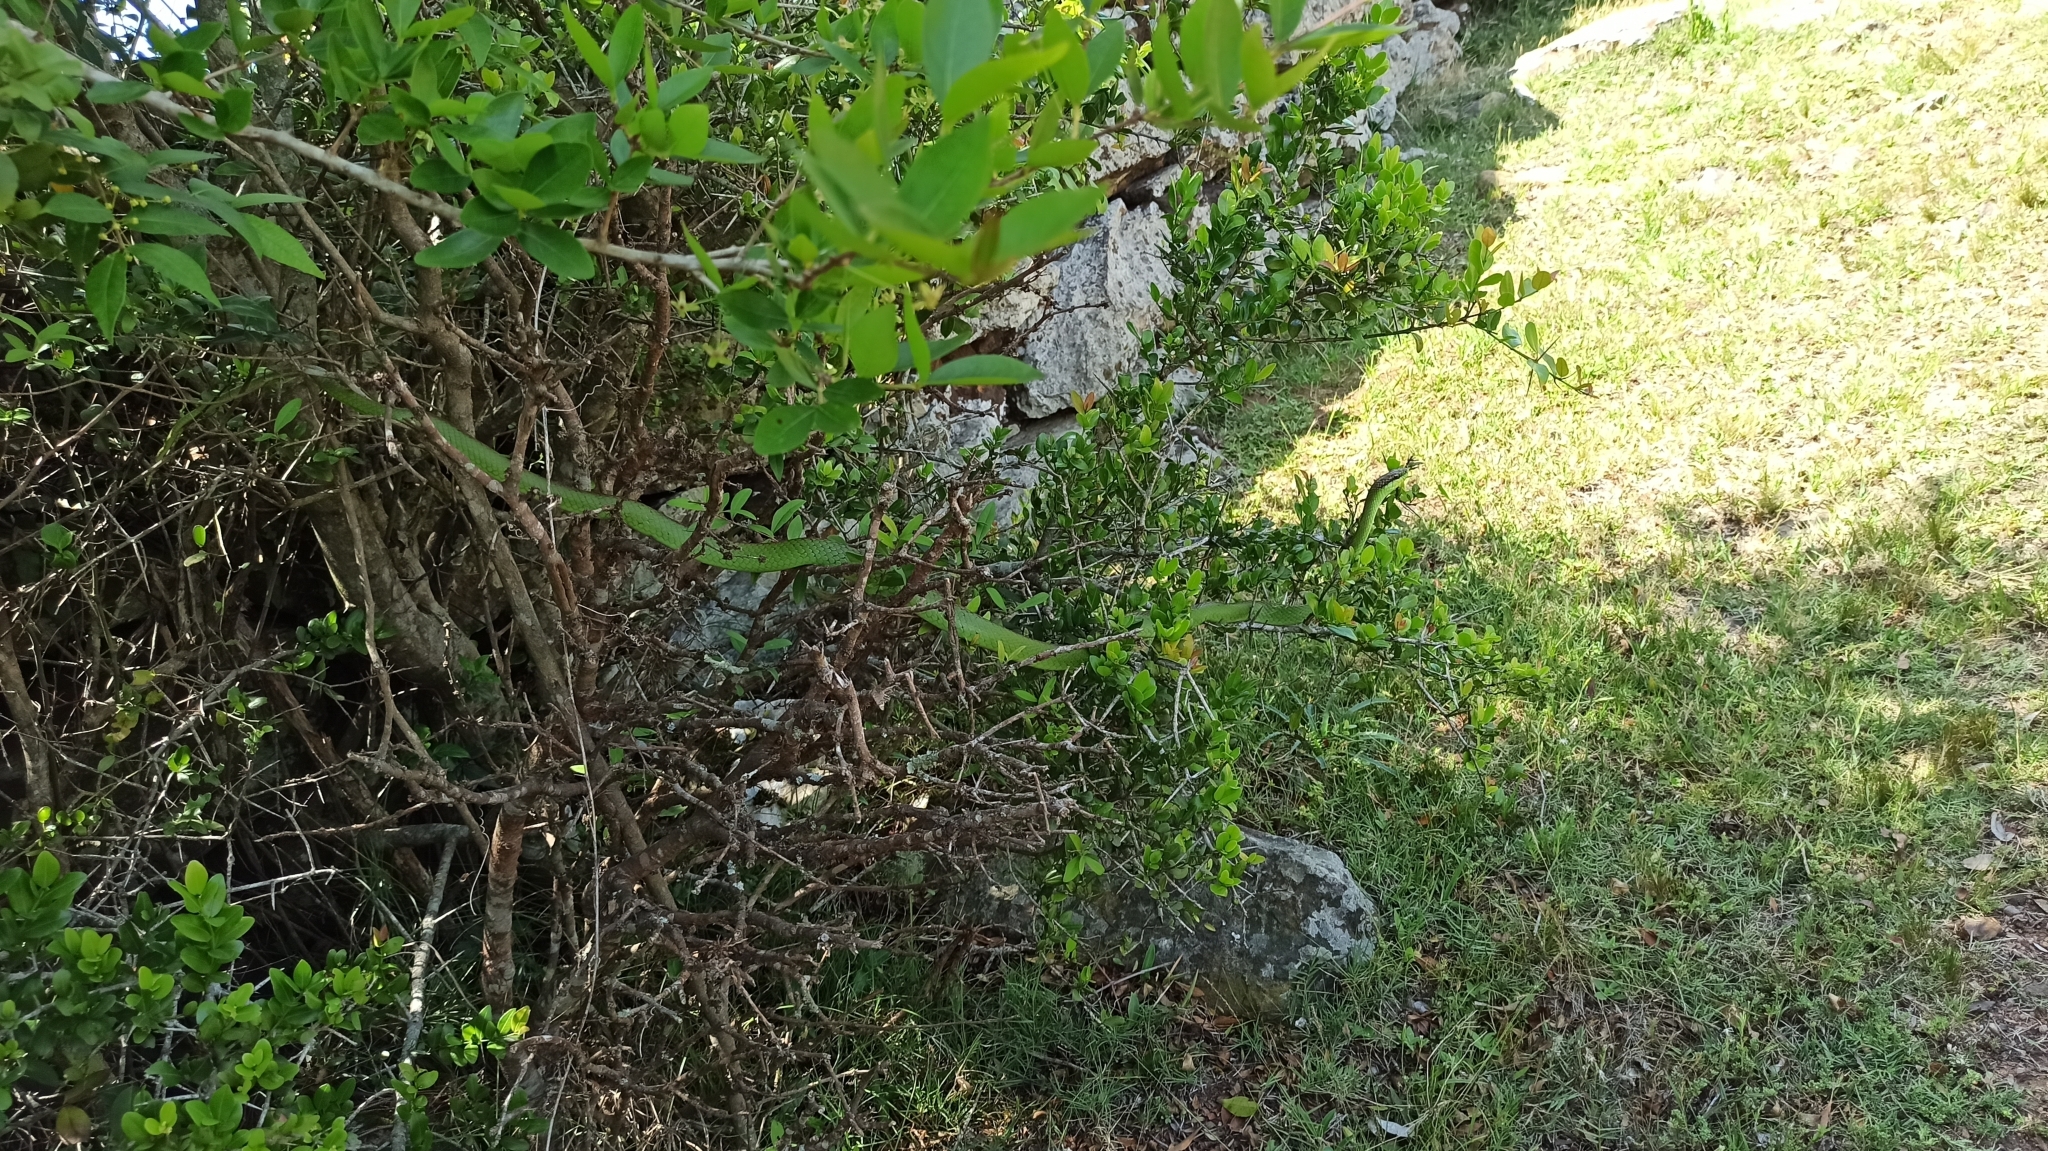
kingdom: Animalia
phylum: Chordata
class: Squamata
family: Colubridae
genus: Philodryas
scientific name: Philodryas olfersii
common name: Lichtenstein's green racer
